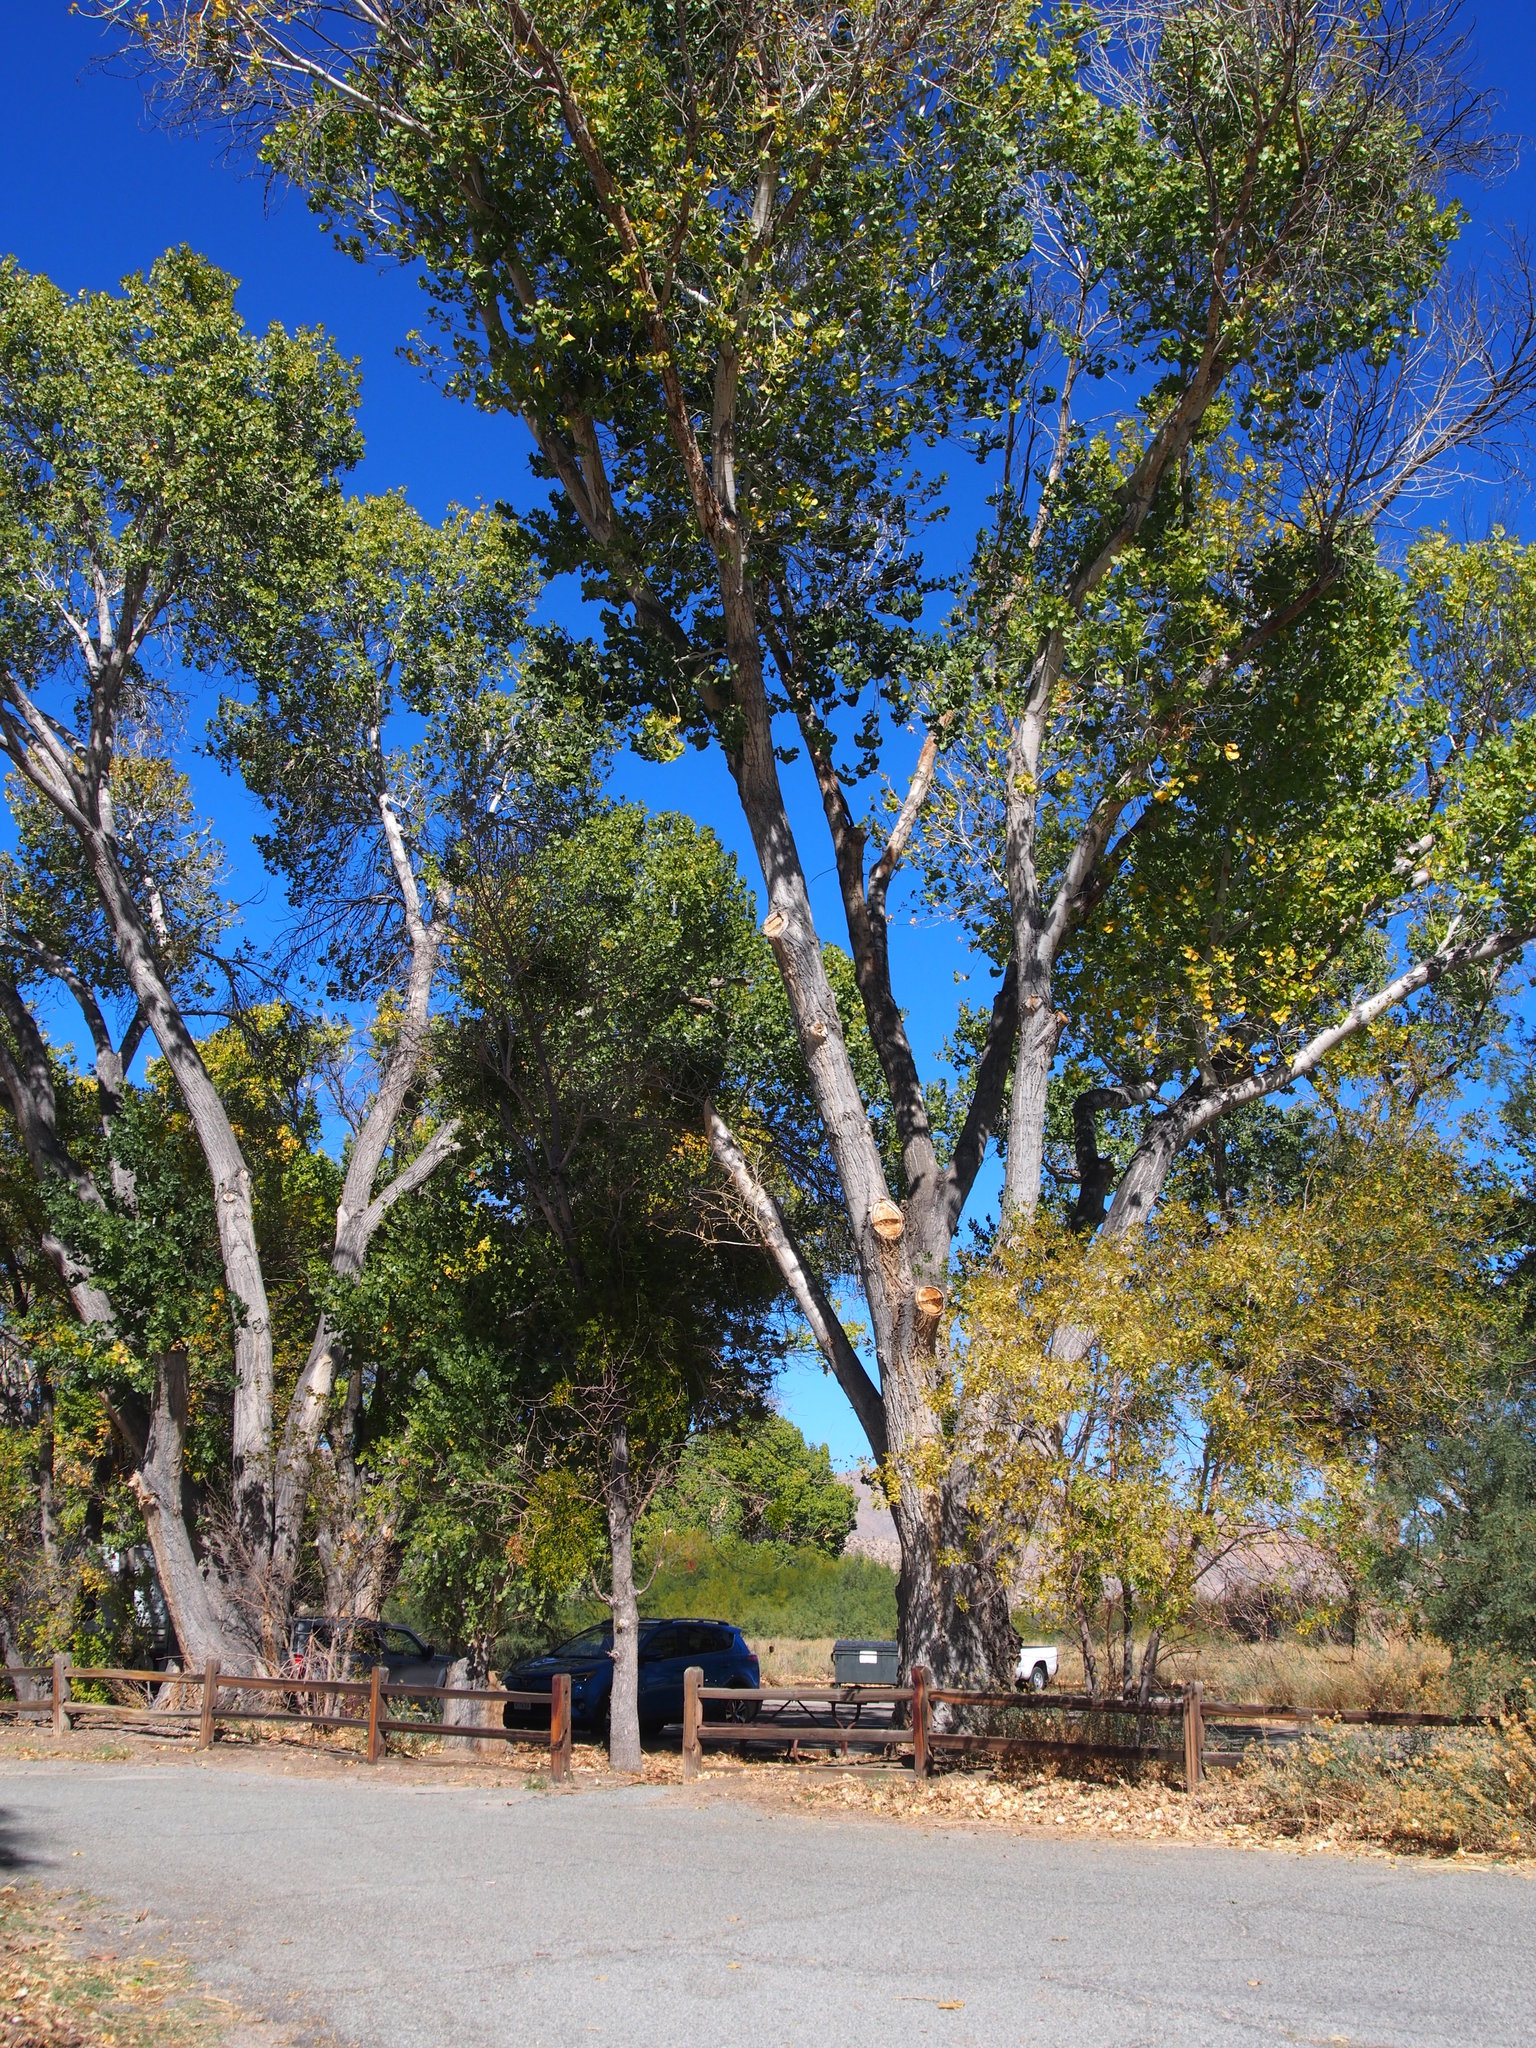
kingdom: Plantae
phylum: Tracheophyta
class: Magnoliopsida
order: Malpighiales
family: Salicaceae
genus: Populus
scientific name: Populus fremontii
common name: Fremont's cottonwood
